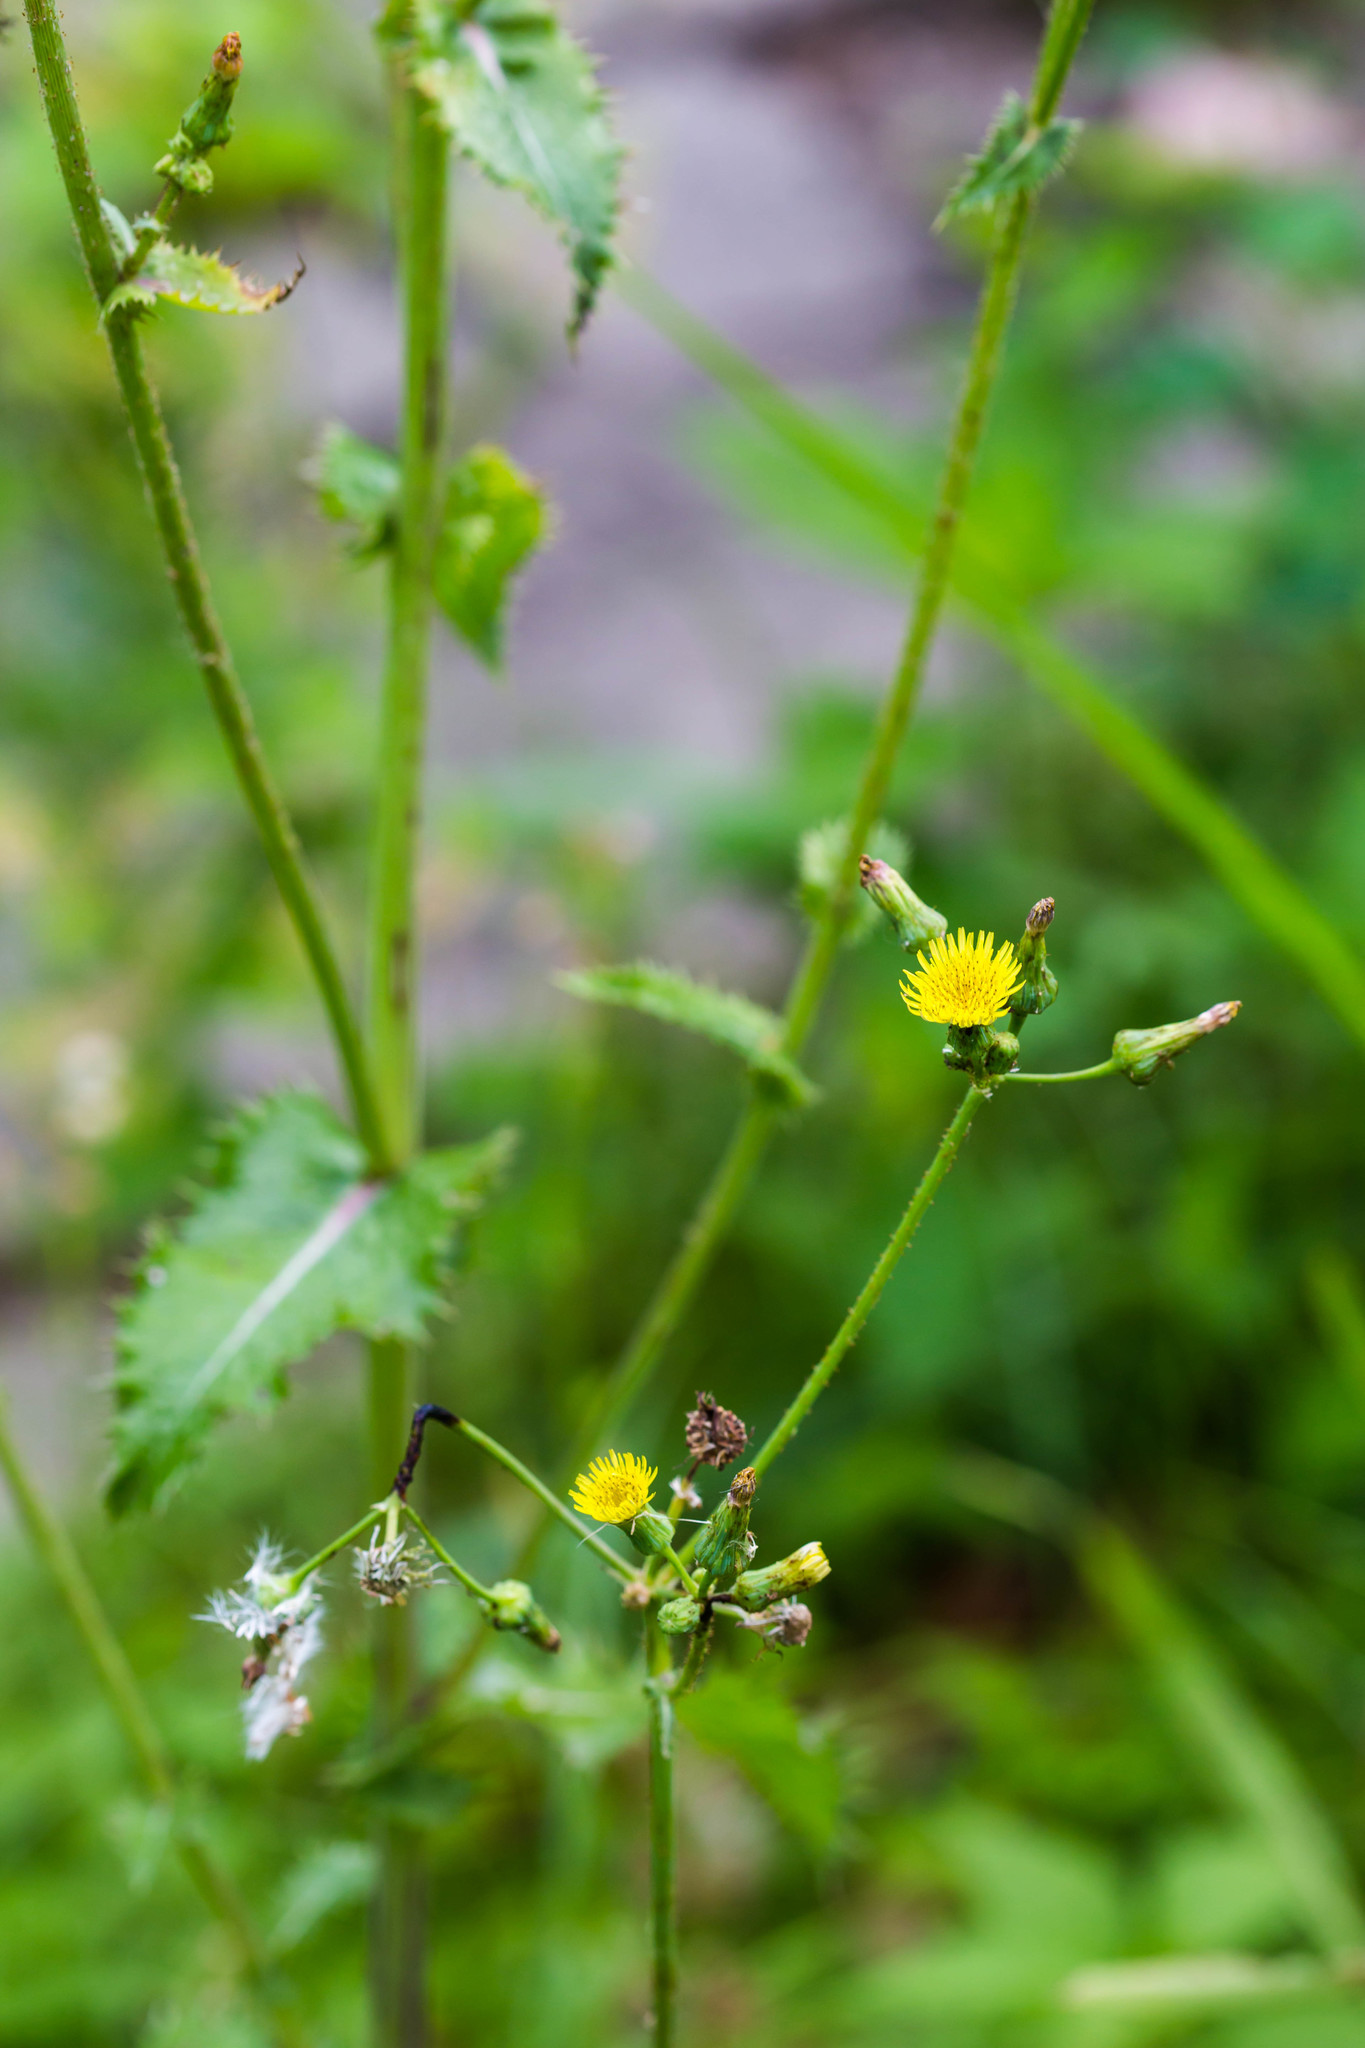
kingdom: Plantae
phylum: Tracheophyta
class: Magnoliopsida
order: Asterales
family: Asteraceae
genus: Sonchus
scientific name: Sonchus asper
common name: Prickly sow-thistle
